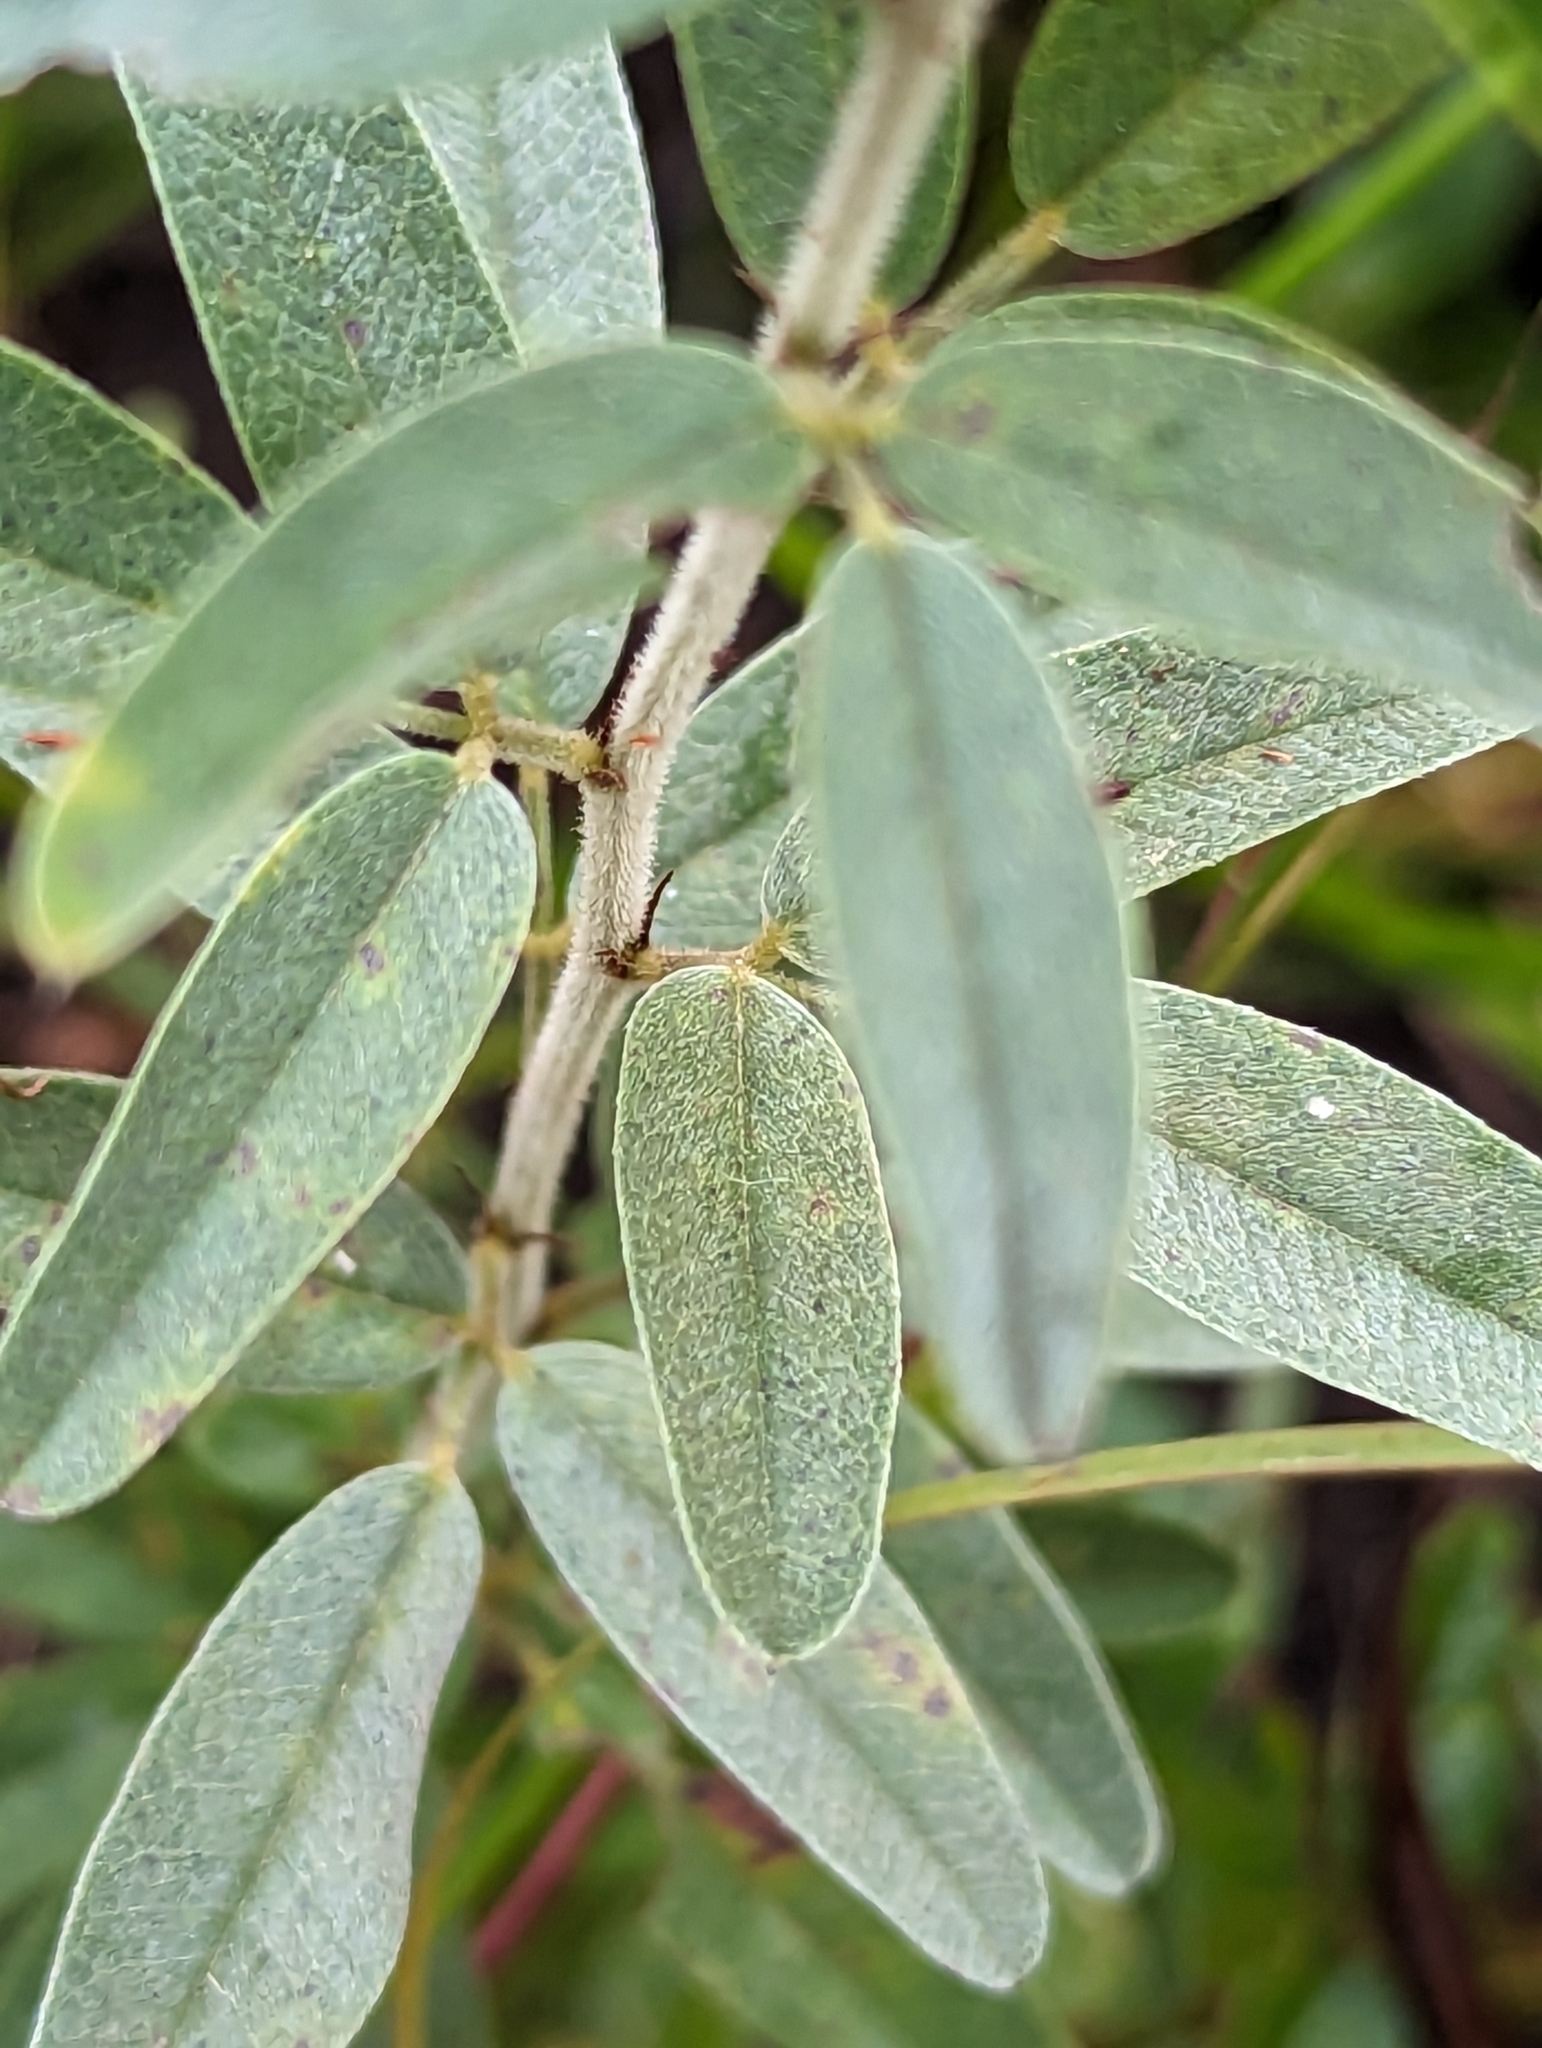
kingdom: Plantae
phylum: Tracheophyta
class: Magnoliopsida
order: Fabales
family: Fabaceae
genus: Lespedeza
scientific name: Lespedeza capitata
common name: Dusty clover
